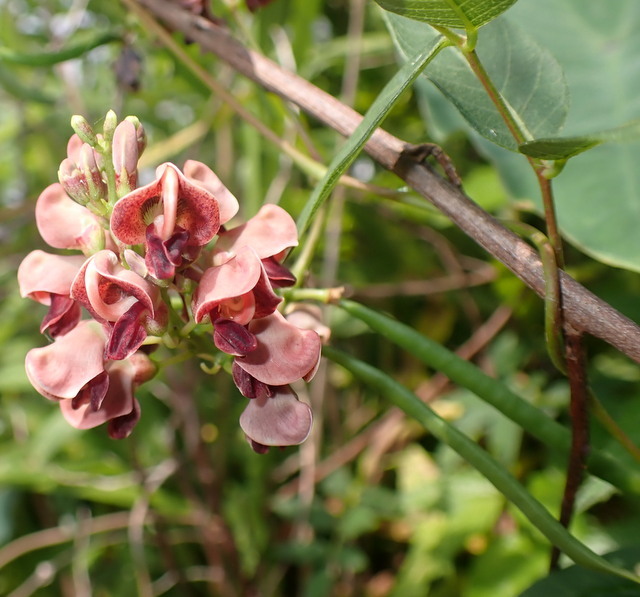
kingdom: Plantae
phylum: Tracheophyta
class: Magnoliopsida
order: Fabales
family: Fabaceae
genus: Apios
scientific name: Apios americana
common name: American potato-bean
